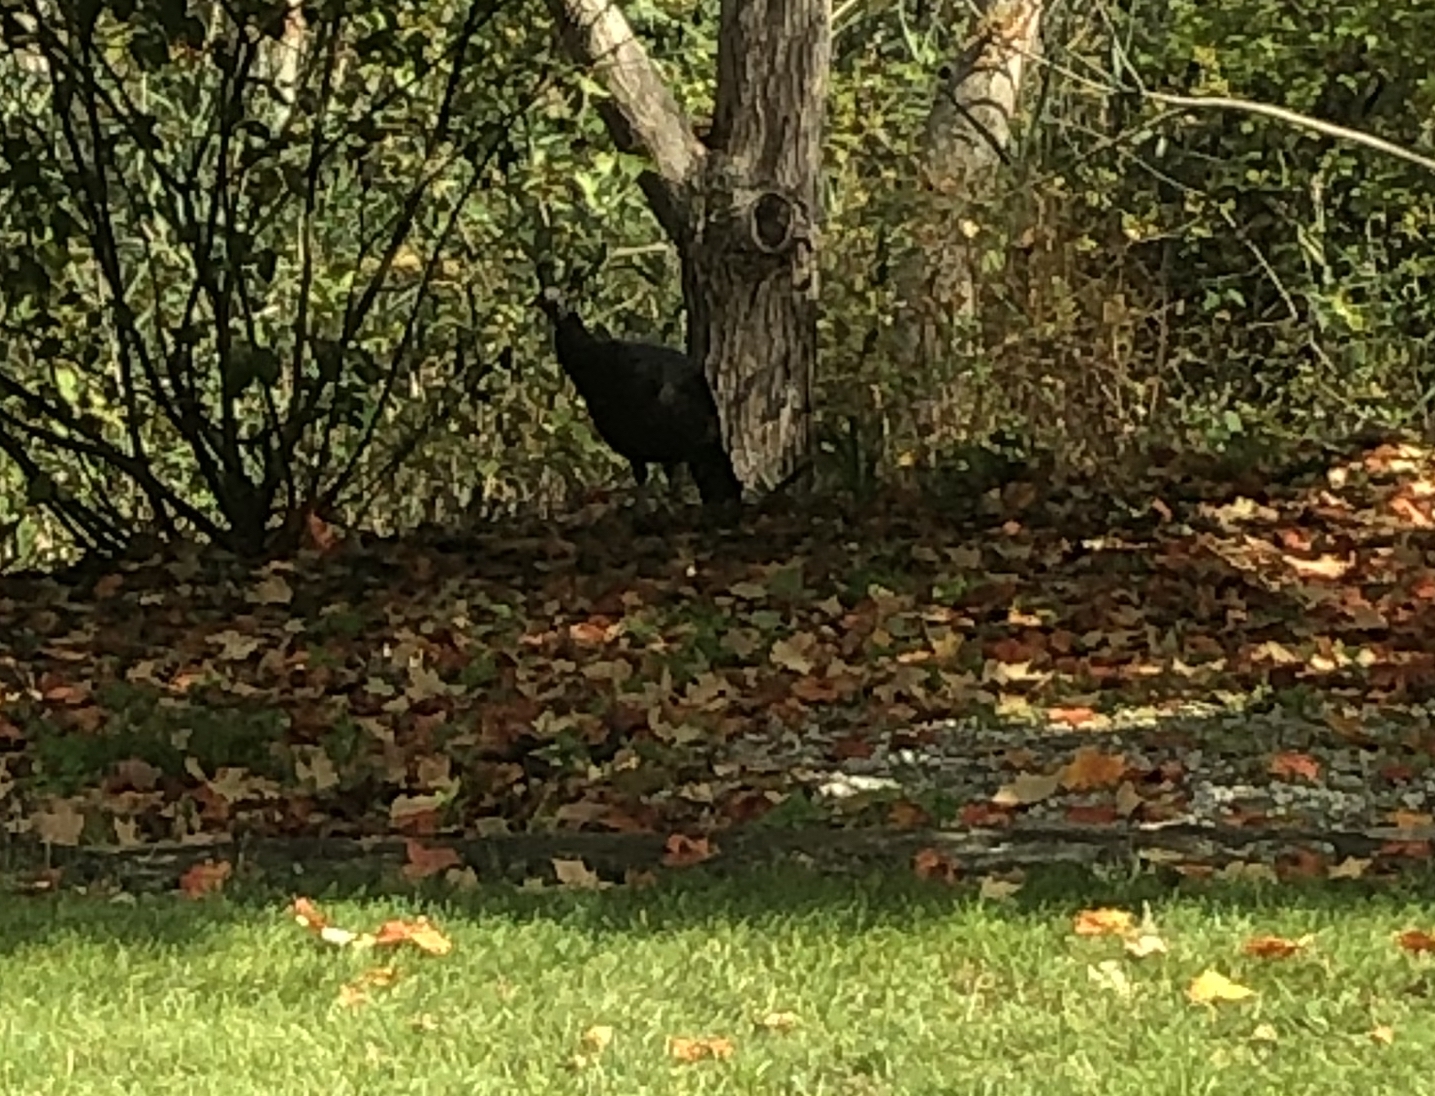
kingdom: Animalia
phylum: Chordata
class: Aves
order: Galliformes
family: Phasianidae
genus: Meleagris
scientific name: Meleagris gallopavo
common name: Wild turkey
